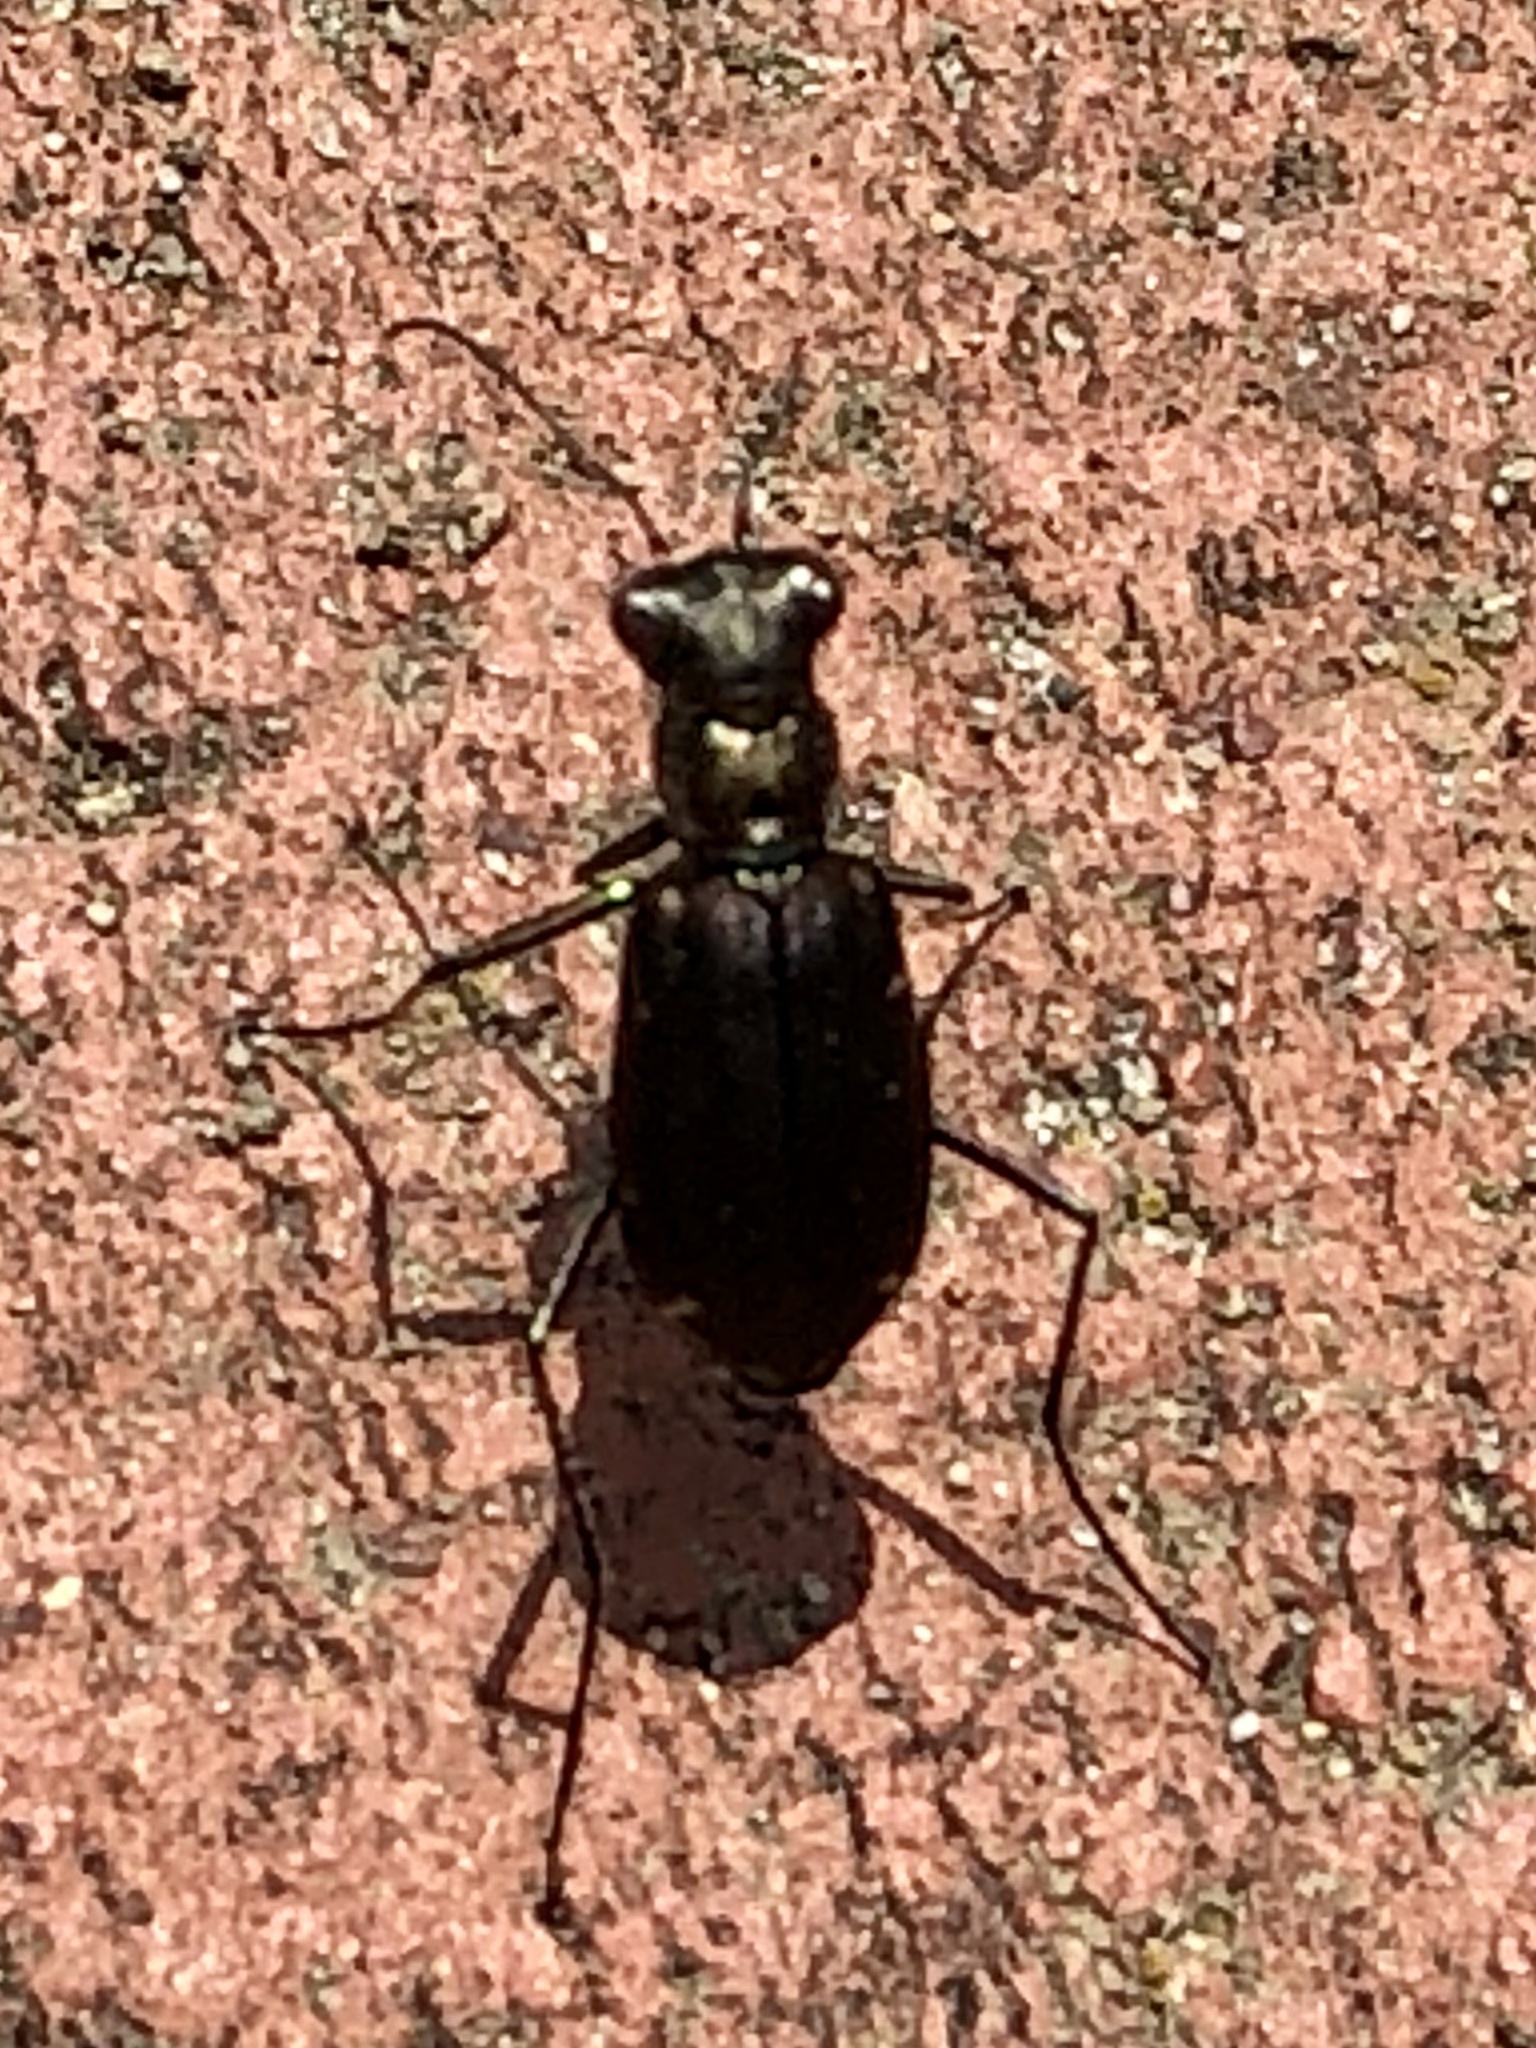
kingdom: Animalia
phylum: Arthropoda
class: Insecta
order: Coleoptera
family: Carabidae
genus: Cicindela
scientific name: Cicindela punctulata
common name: Punctured tiger beetle
